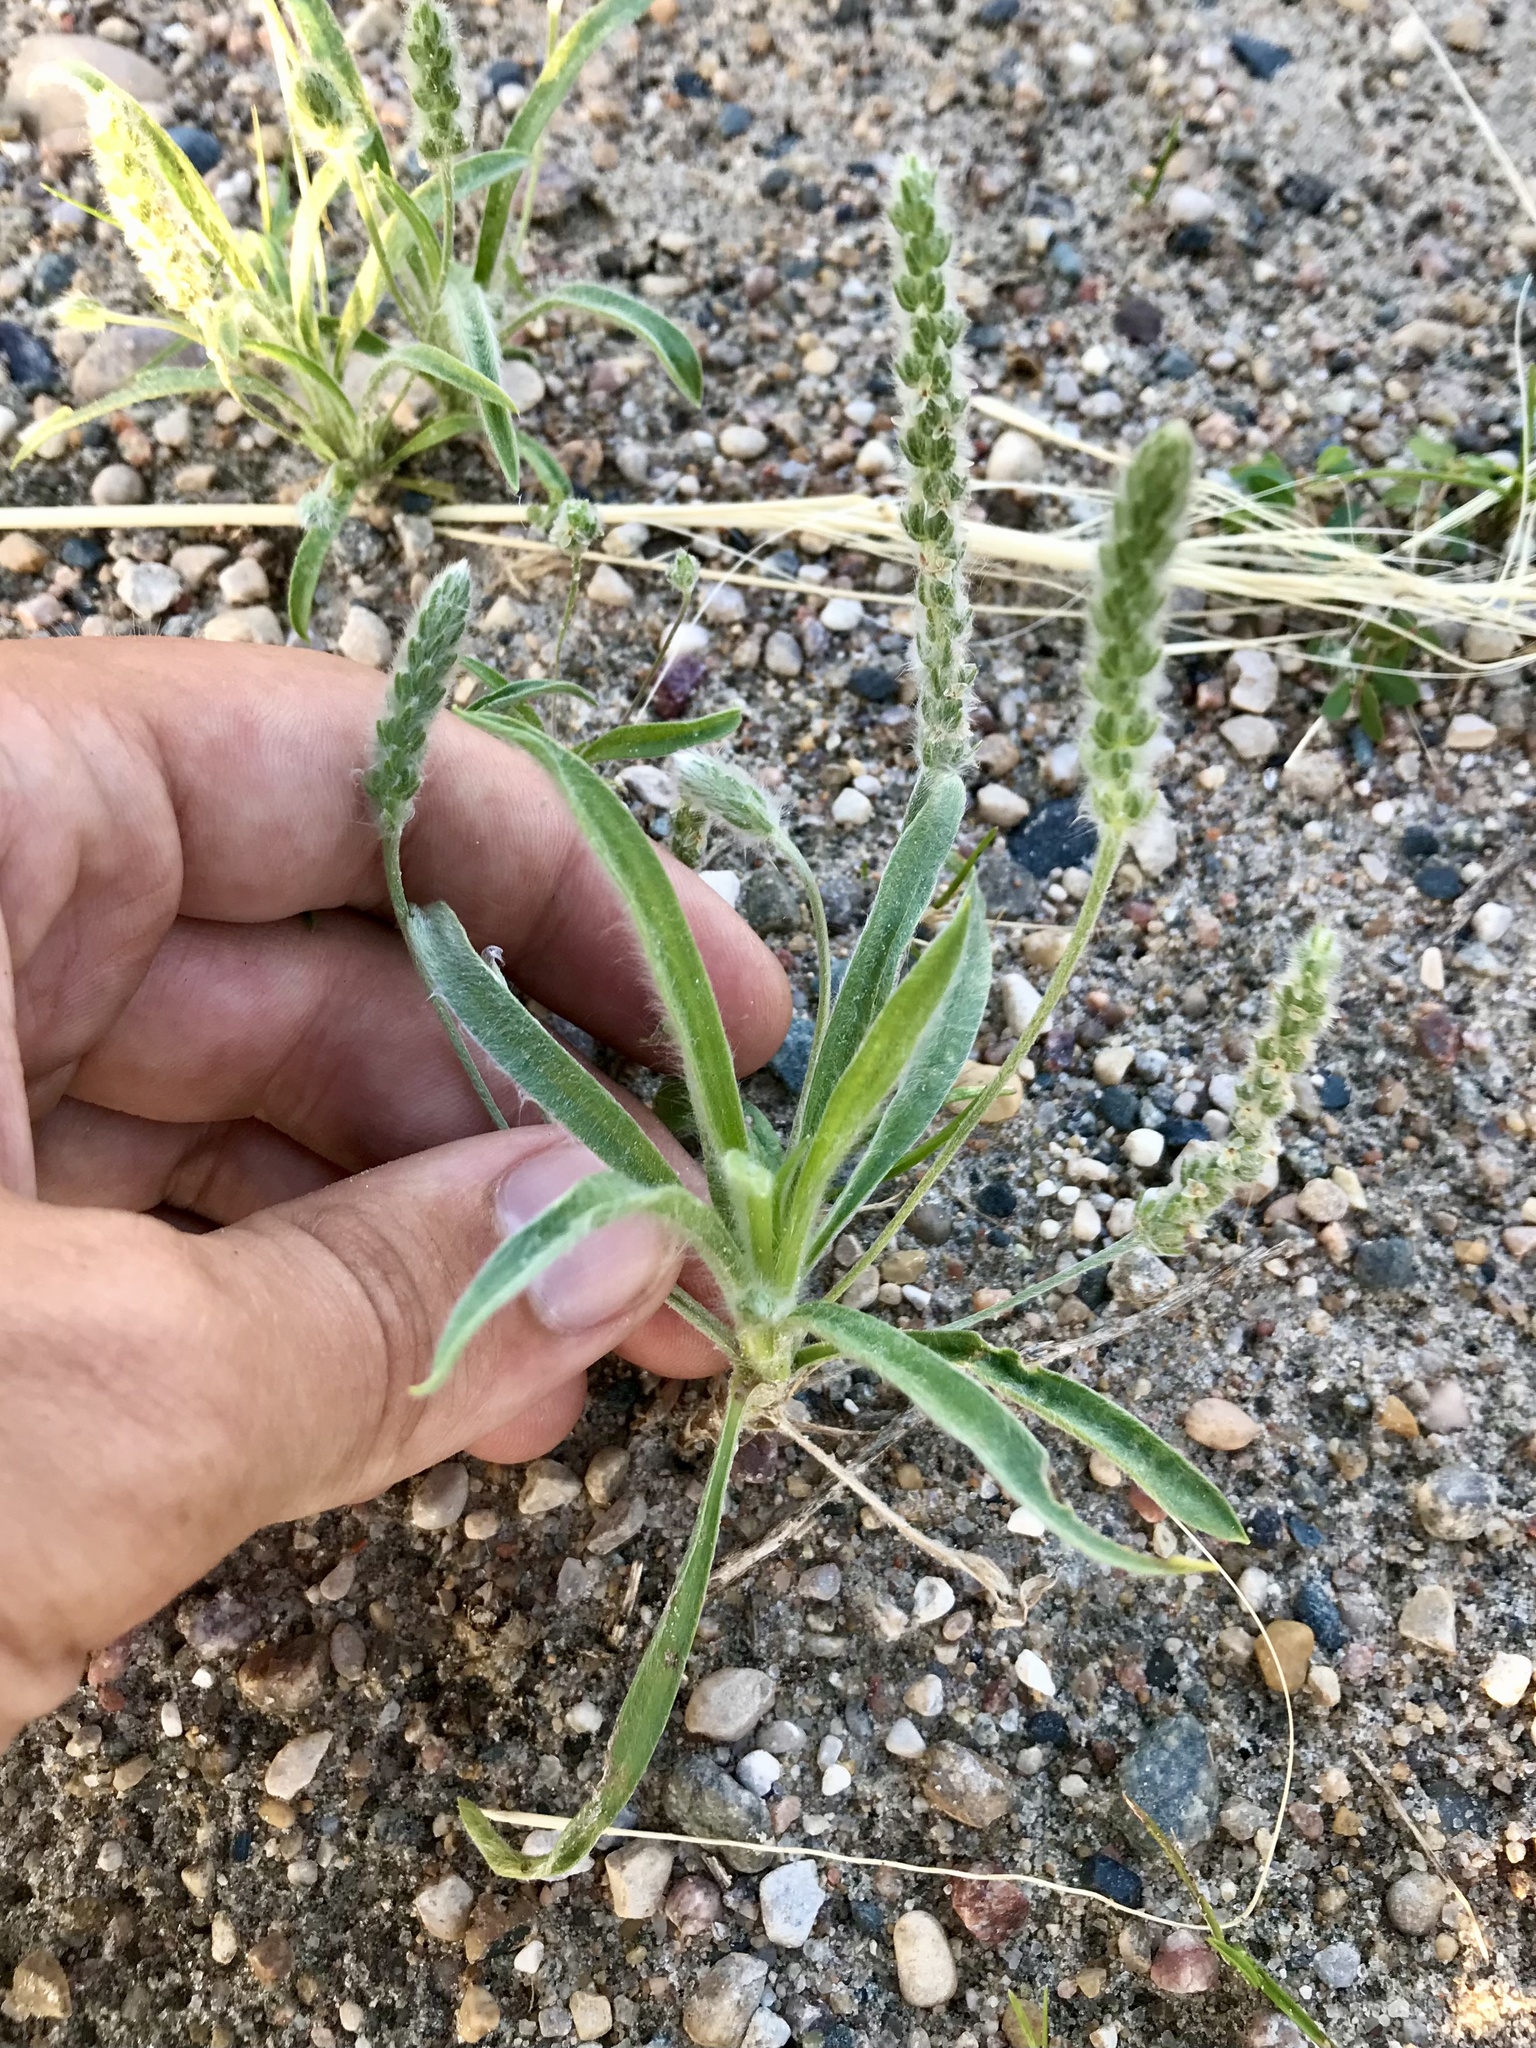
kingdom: Plantae
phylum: Tracheophyta
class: Magnoliopsida
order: Lamiales
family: Plantaginaceae
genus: Plantago
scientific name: Plantago patagonica
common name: Patagonia indian-wheat
